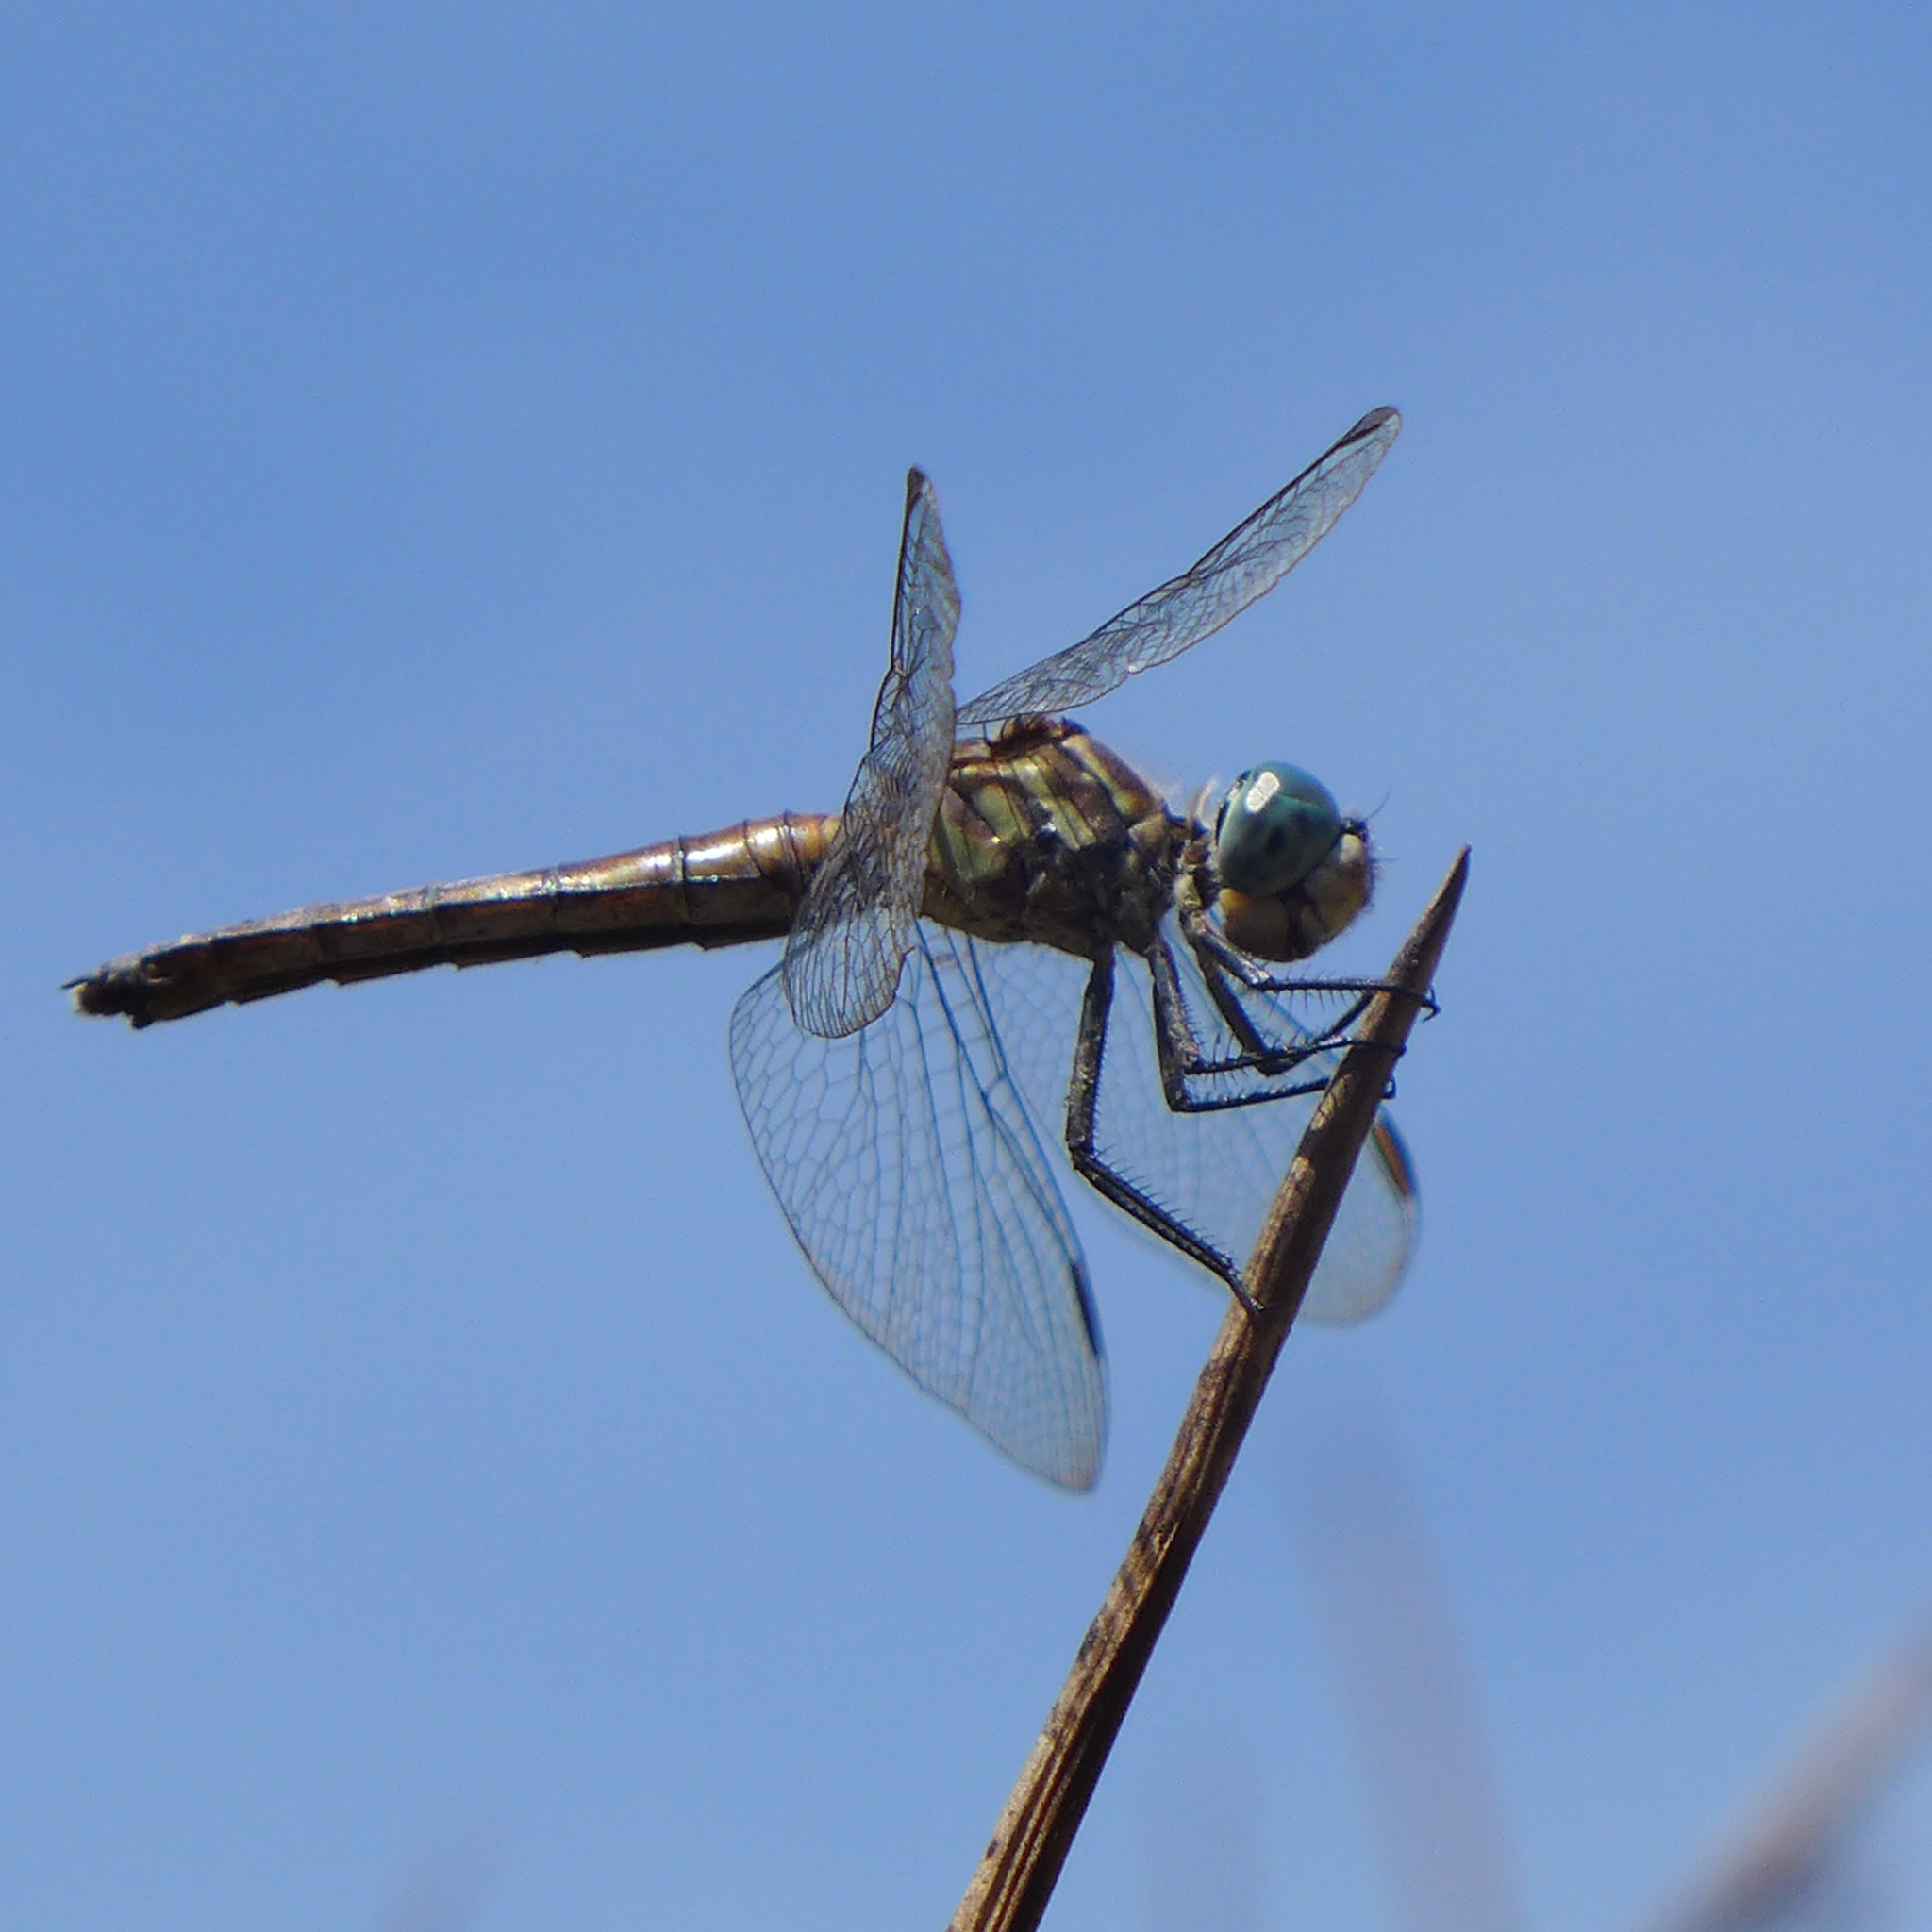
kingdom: Animalia
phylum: Arthropoda
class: Insecta
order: Odonata
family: Libellulidae
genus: Pachydiplax
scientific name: Pachydiplax longipennis
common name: Blue dasher
